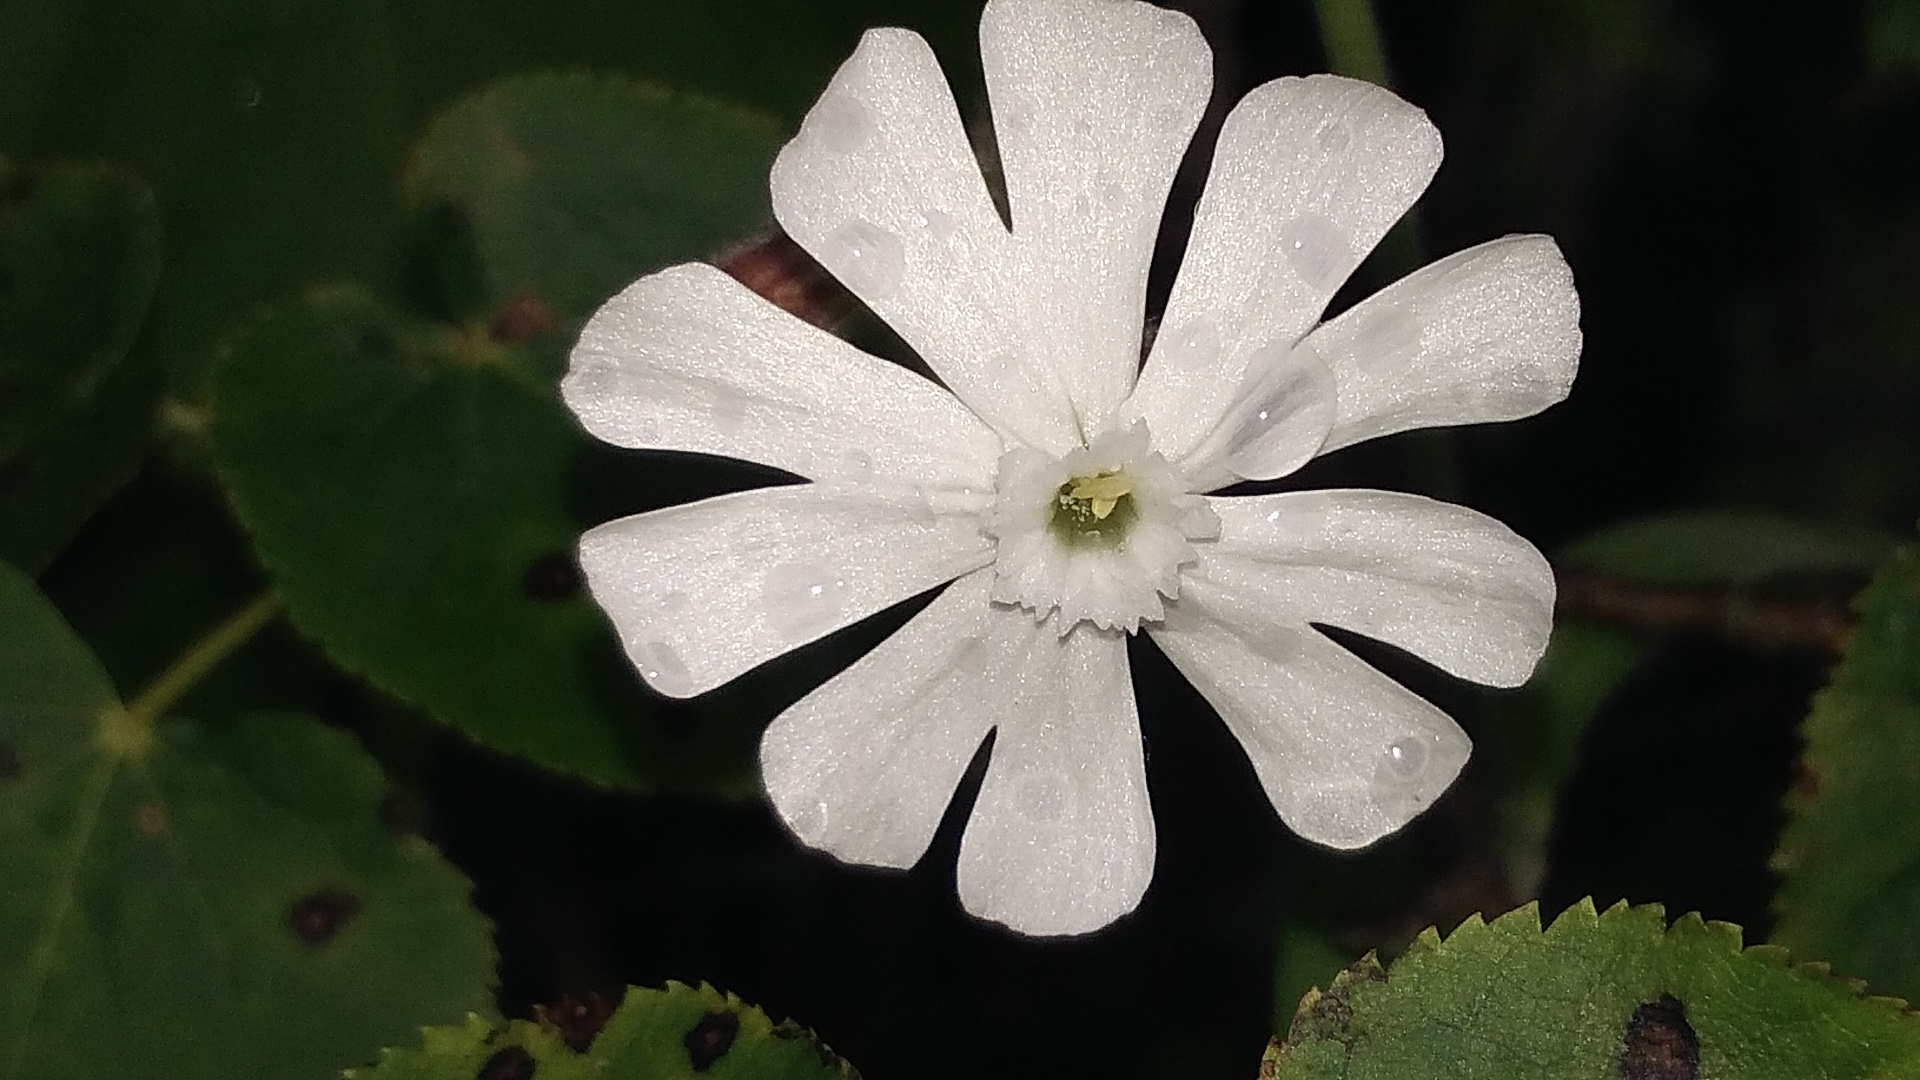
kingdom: Plantae
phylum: Tracheophyta
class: Magnoliopsida
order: Caryophyllales
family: Caryophyllaceae
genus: Silene
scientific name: Silene latifolia
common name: White campion
